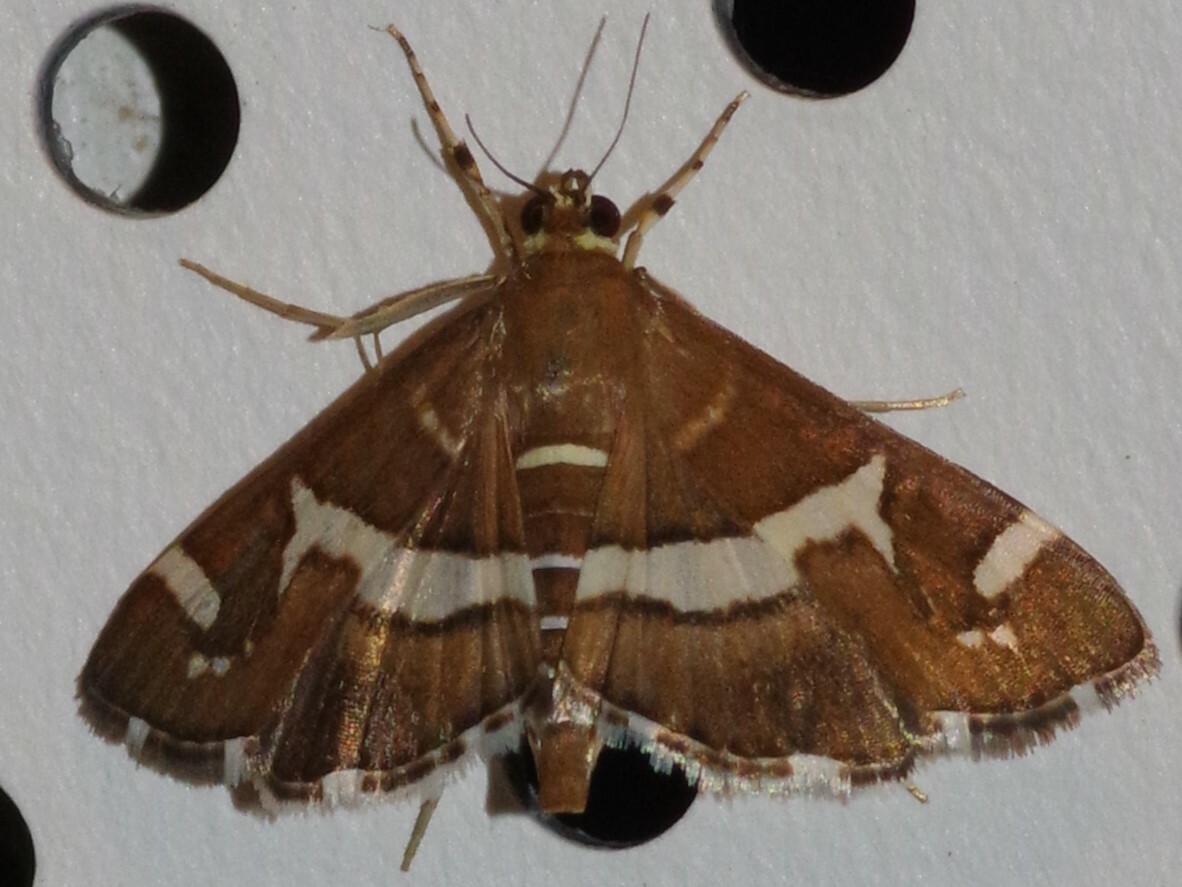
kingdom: Animalia
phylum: Arthropoda
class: Insecta
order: Lepidoptera
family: Crambidae
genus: Spoladea
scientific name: Spoladea recurvalis
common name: Beet webworm moth
